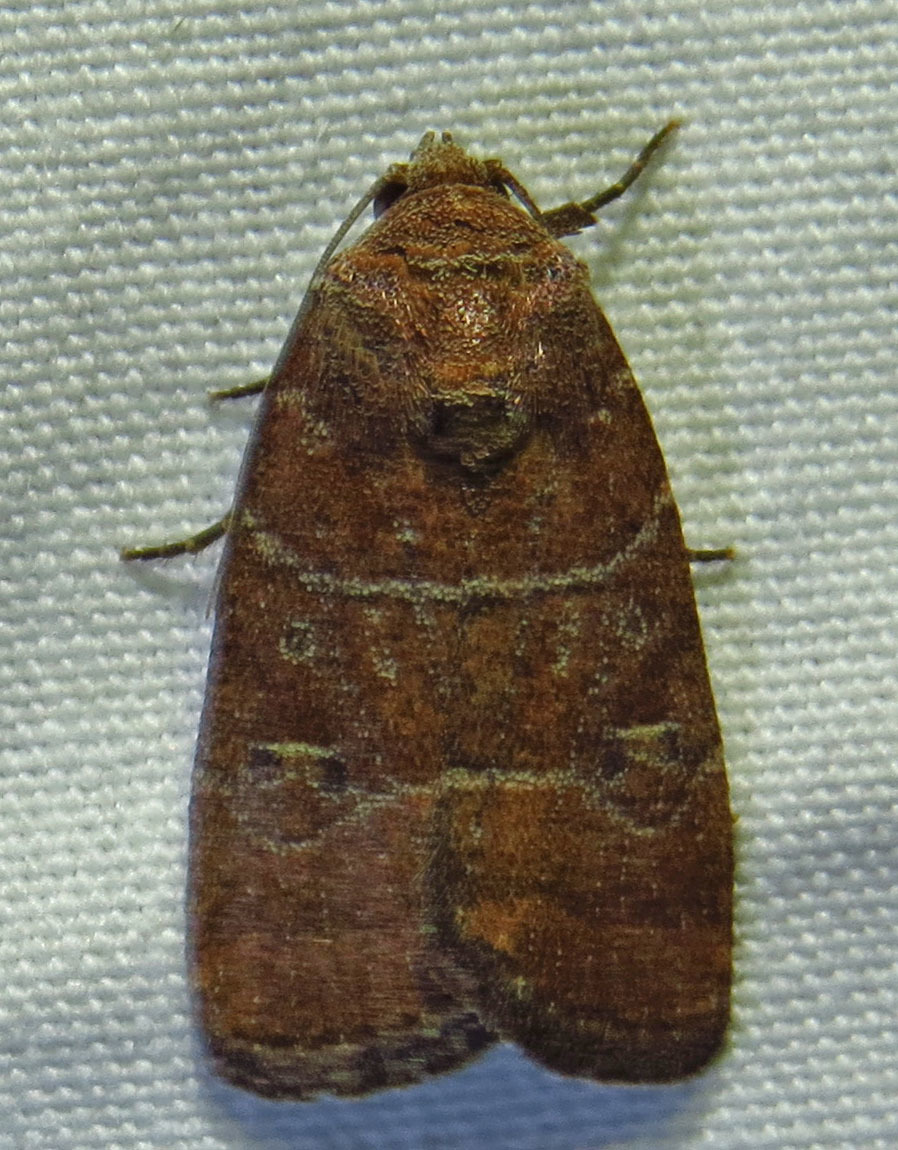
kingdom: Animalia
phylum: Arthropoda
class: Insecta
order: Lepidoptera
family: Noctuidae
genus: Elaphria
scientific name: Elaphria grata
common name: Grateful midget moth
